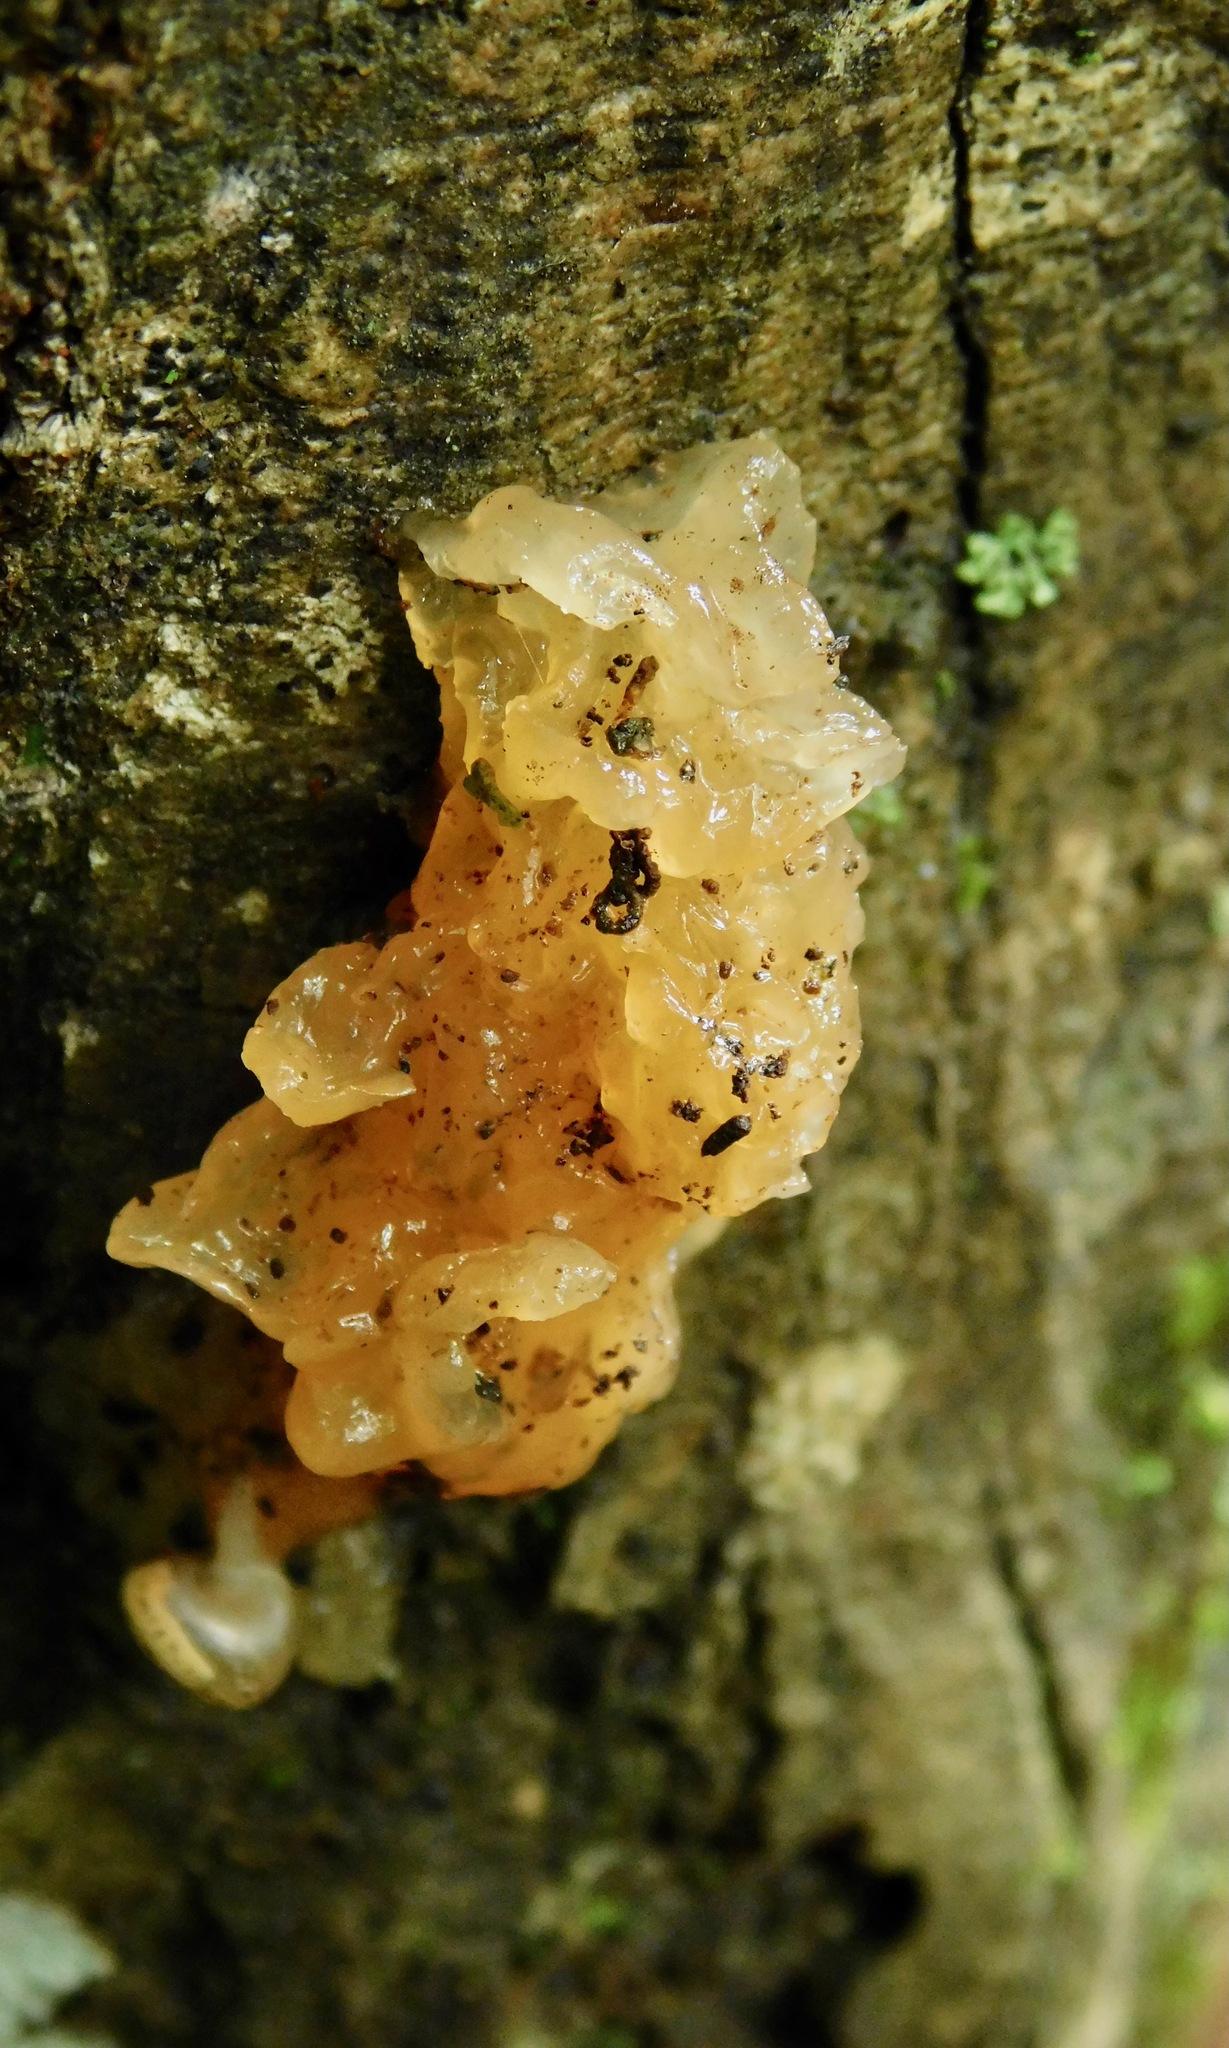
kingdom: Fungi
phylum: Basidiomycota
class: Agaricomycetes
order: Auriculariales
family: Hyaloriaceae
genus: Myxarium
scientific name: Myxarium nucleatum
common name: Crystal brain fungus
